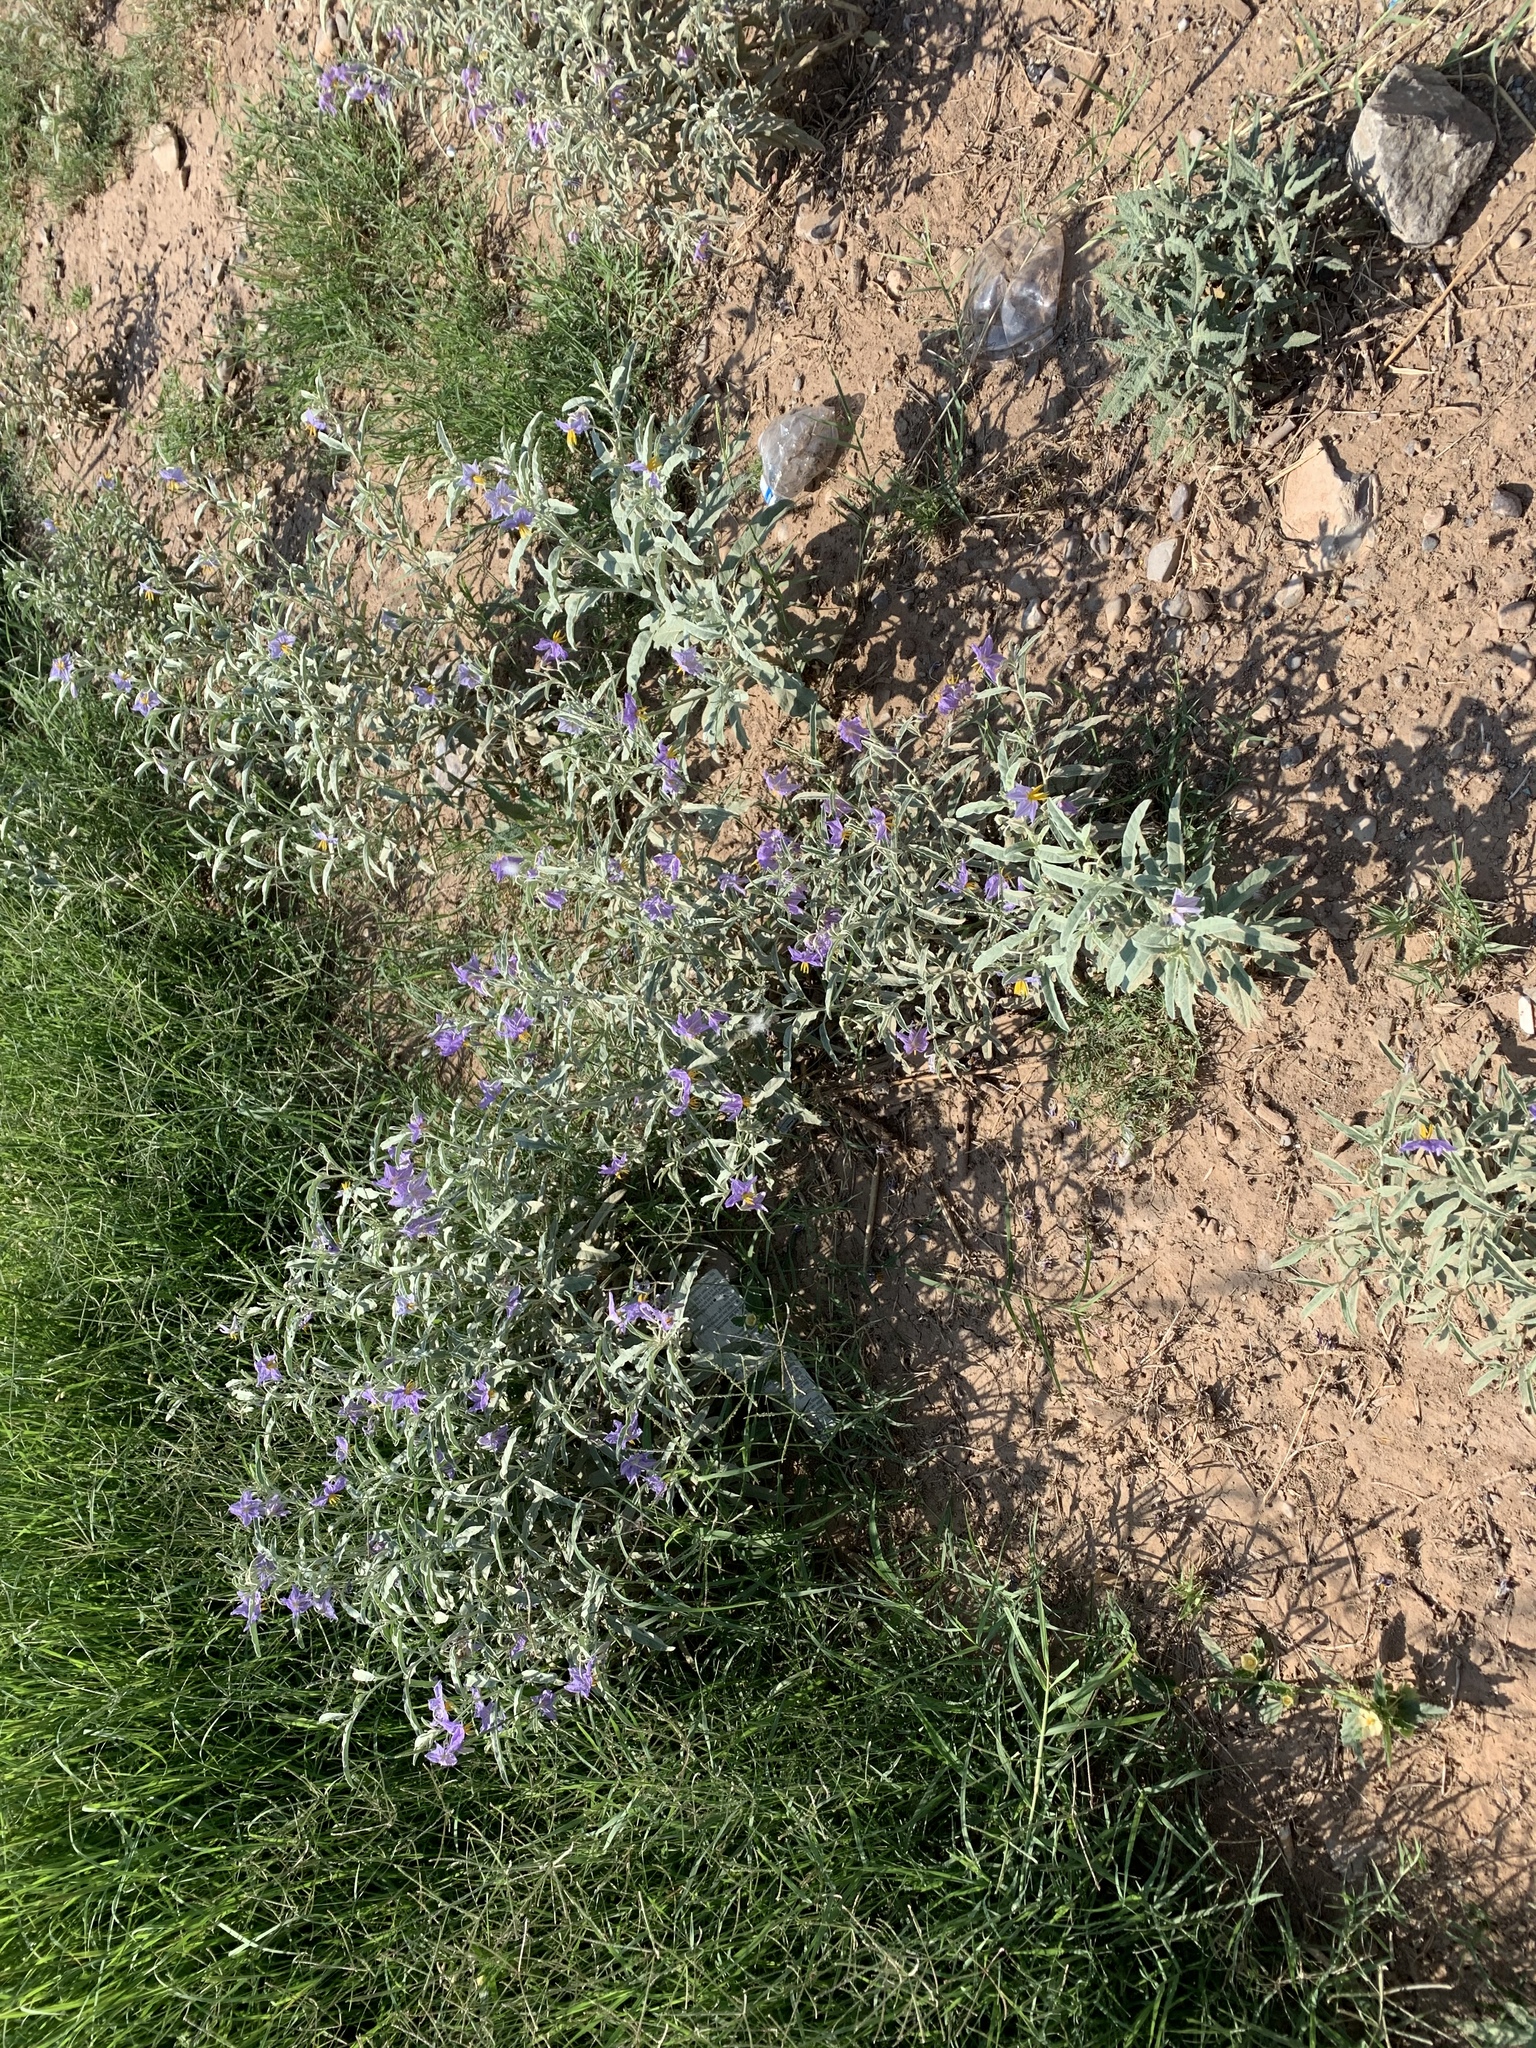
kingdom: Plantae
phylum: Tracheophyta
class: Magnoliopsida
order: Solanales
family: Solanaceae
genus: Solanum
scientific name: Solanum elaeagnifolium
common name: Silverleaf nightshade
